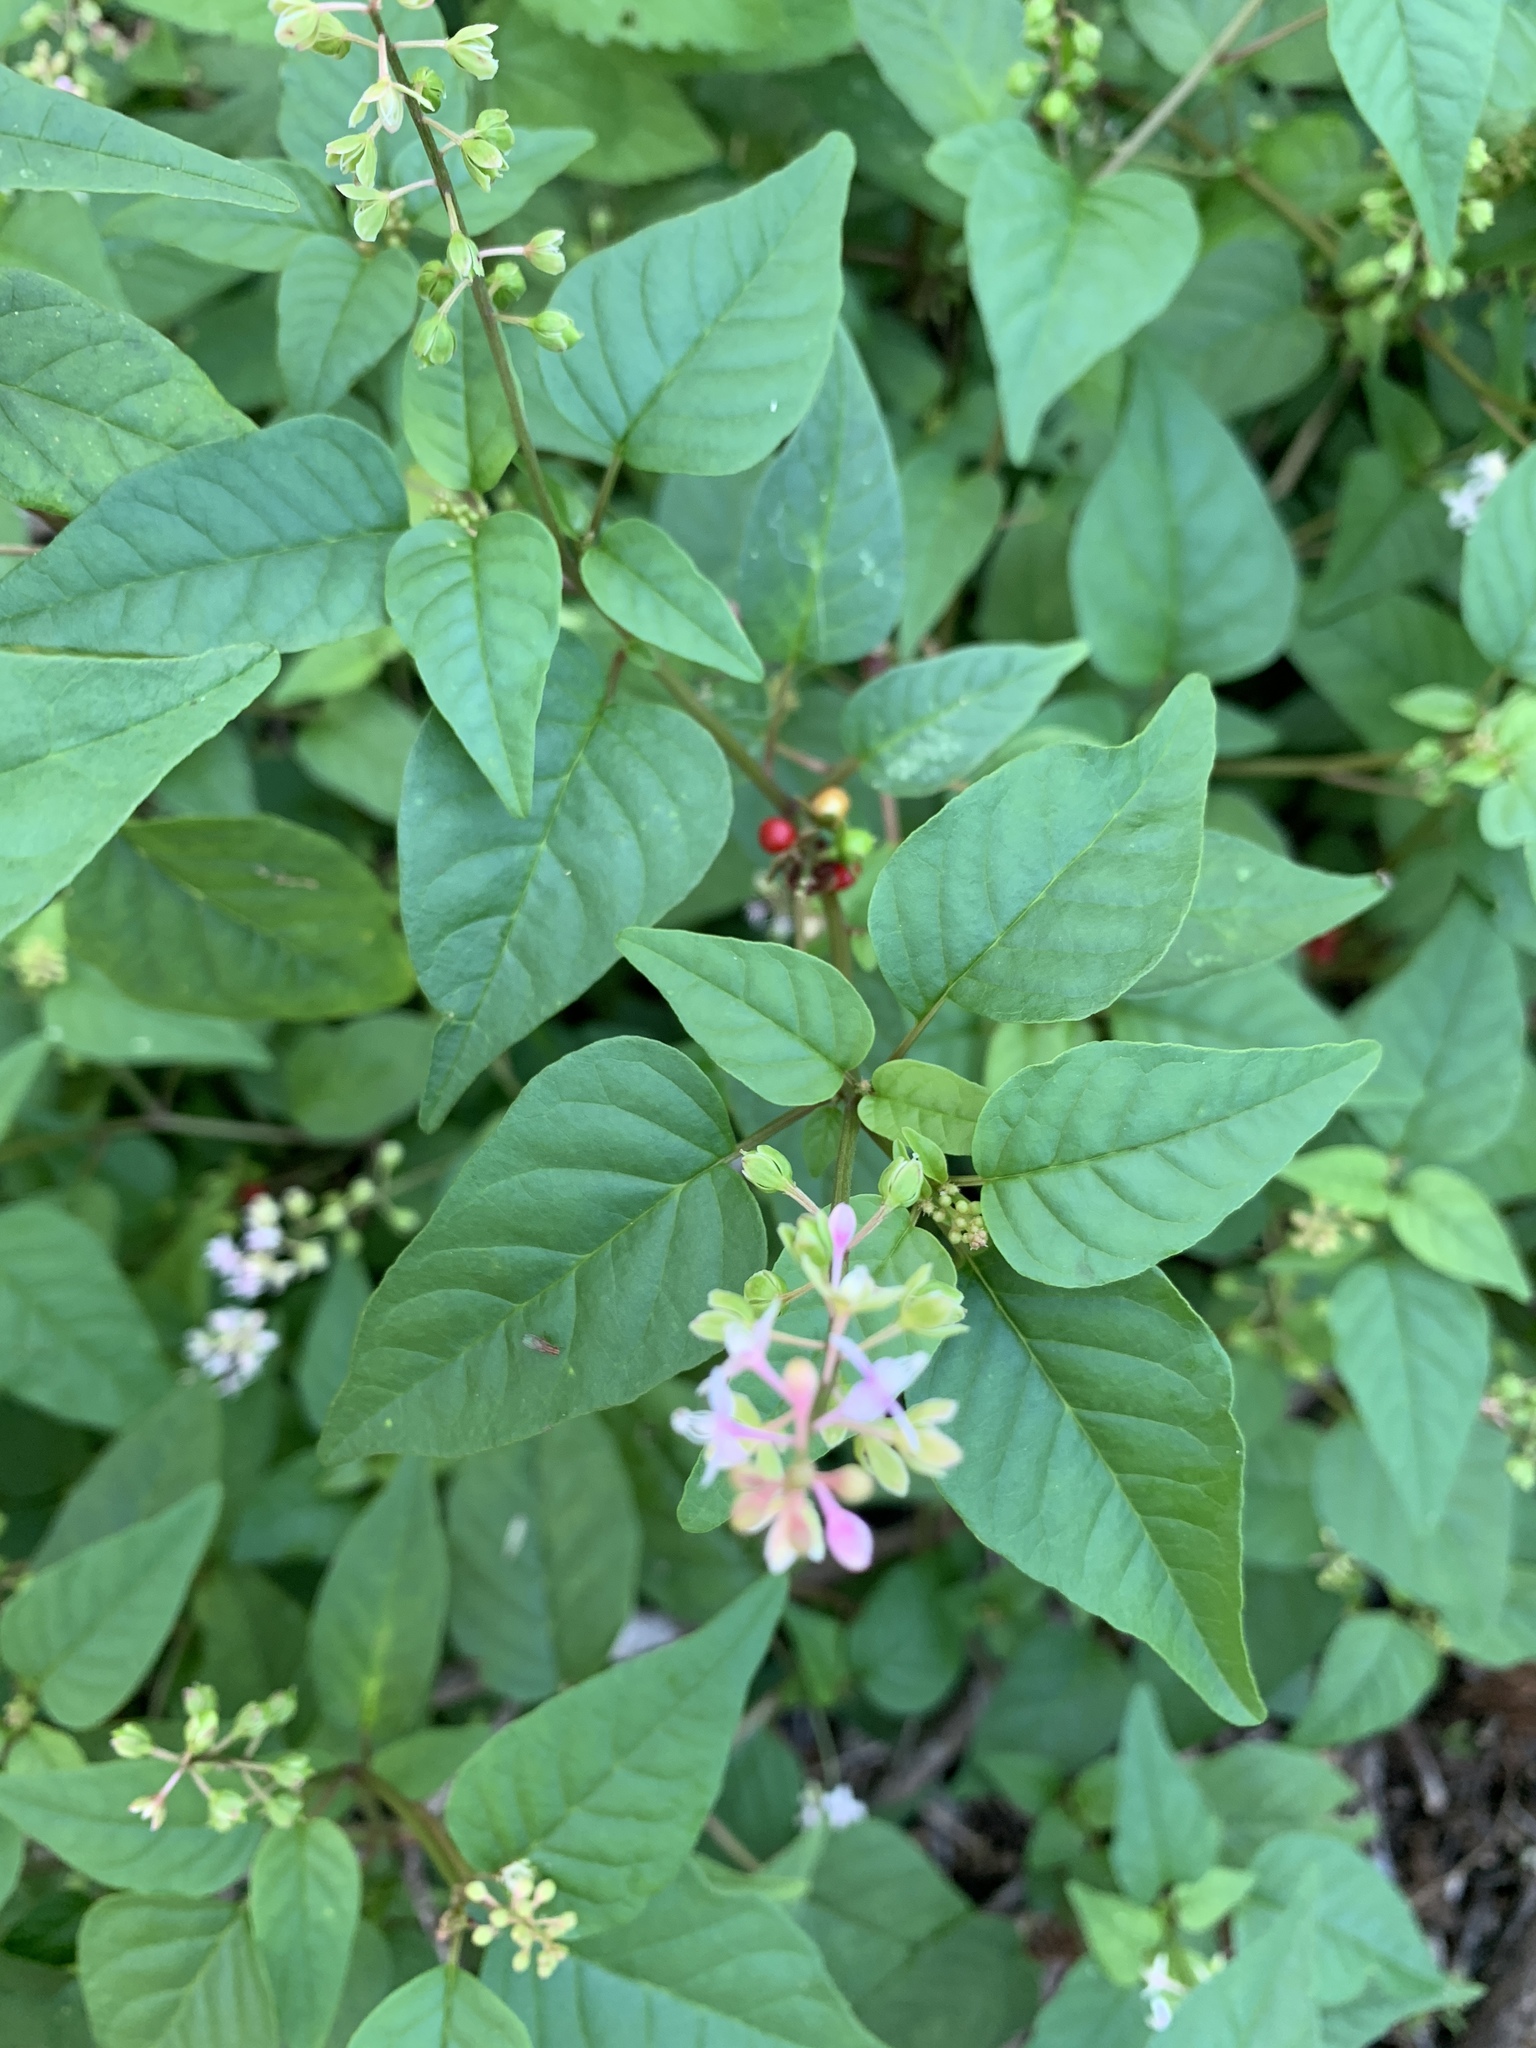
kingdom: Plantae
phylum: Tracheophyta
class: Magnoliopsida
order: Caryophyllales
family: Phytolaccaceae
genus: Rivina
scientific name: Rivina humilis
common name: Rougeplant
